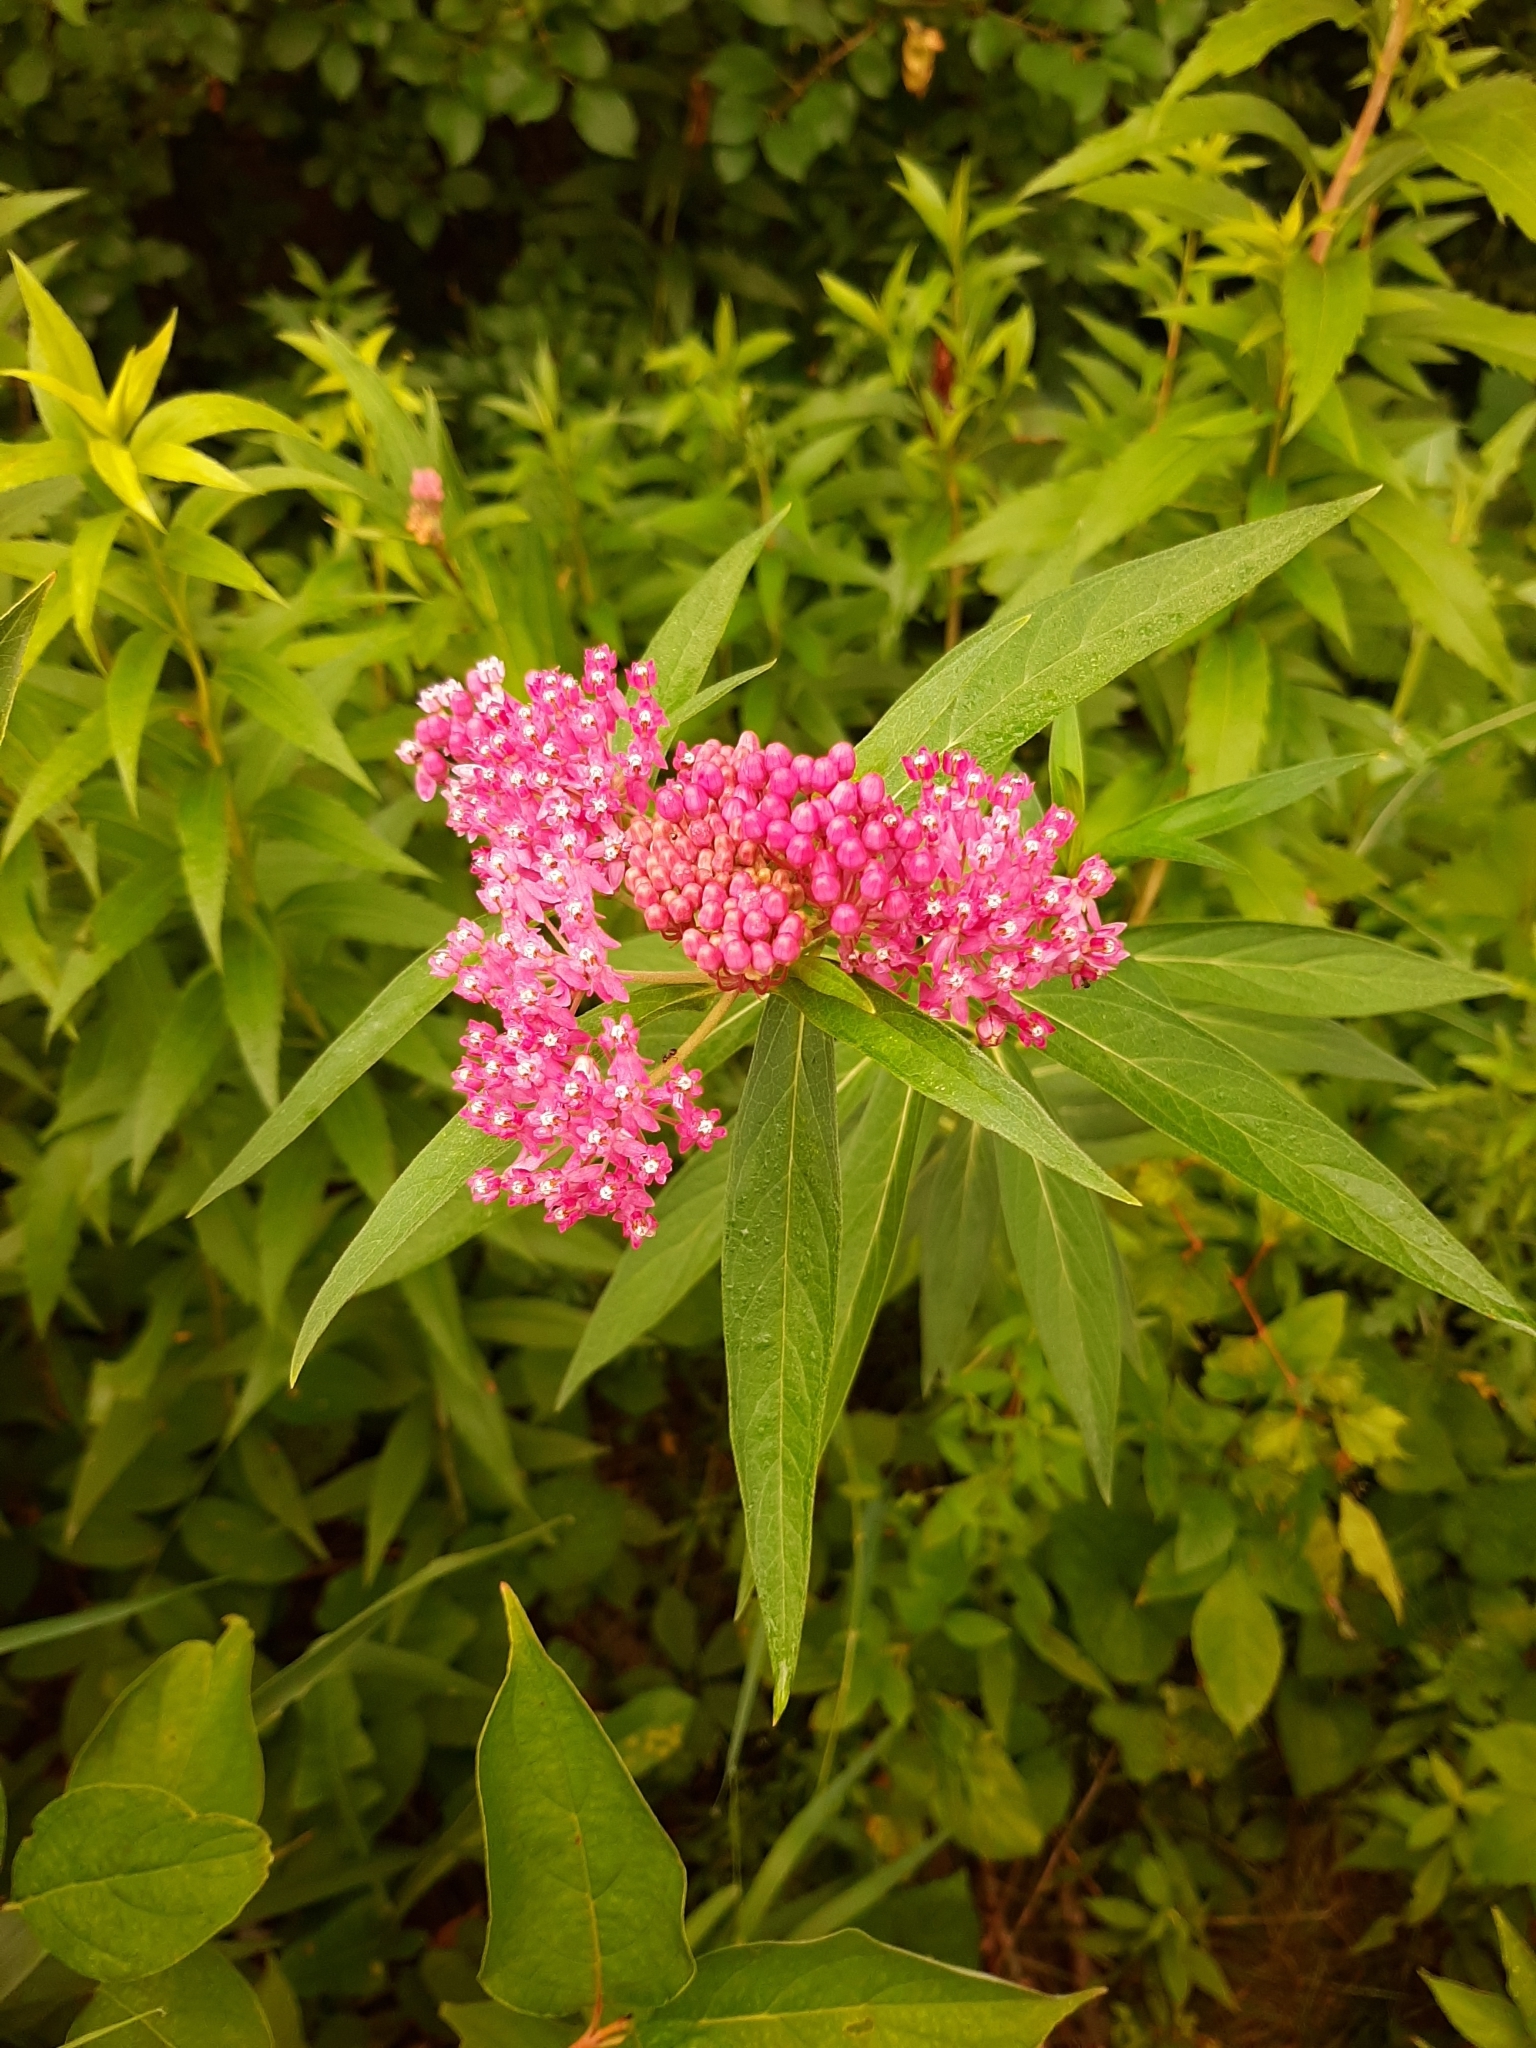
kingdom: Plantae
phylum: Tracheophyta
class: Magnoliopsida
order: Gentianales
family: Apocynaceae
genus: Asclepias
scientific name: Asclepias incarnata
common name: Swamp milkweed
